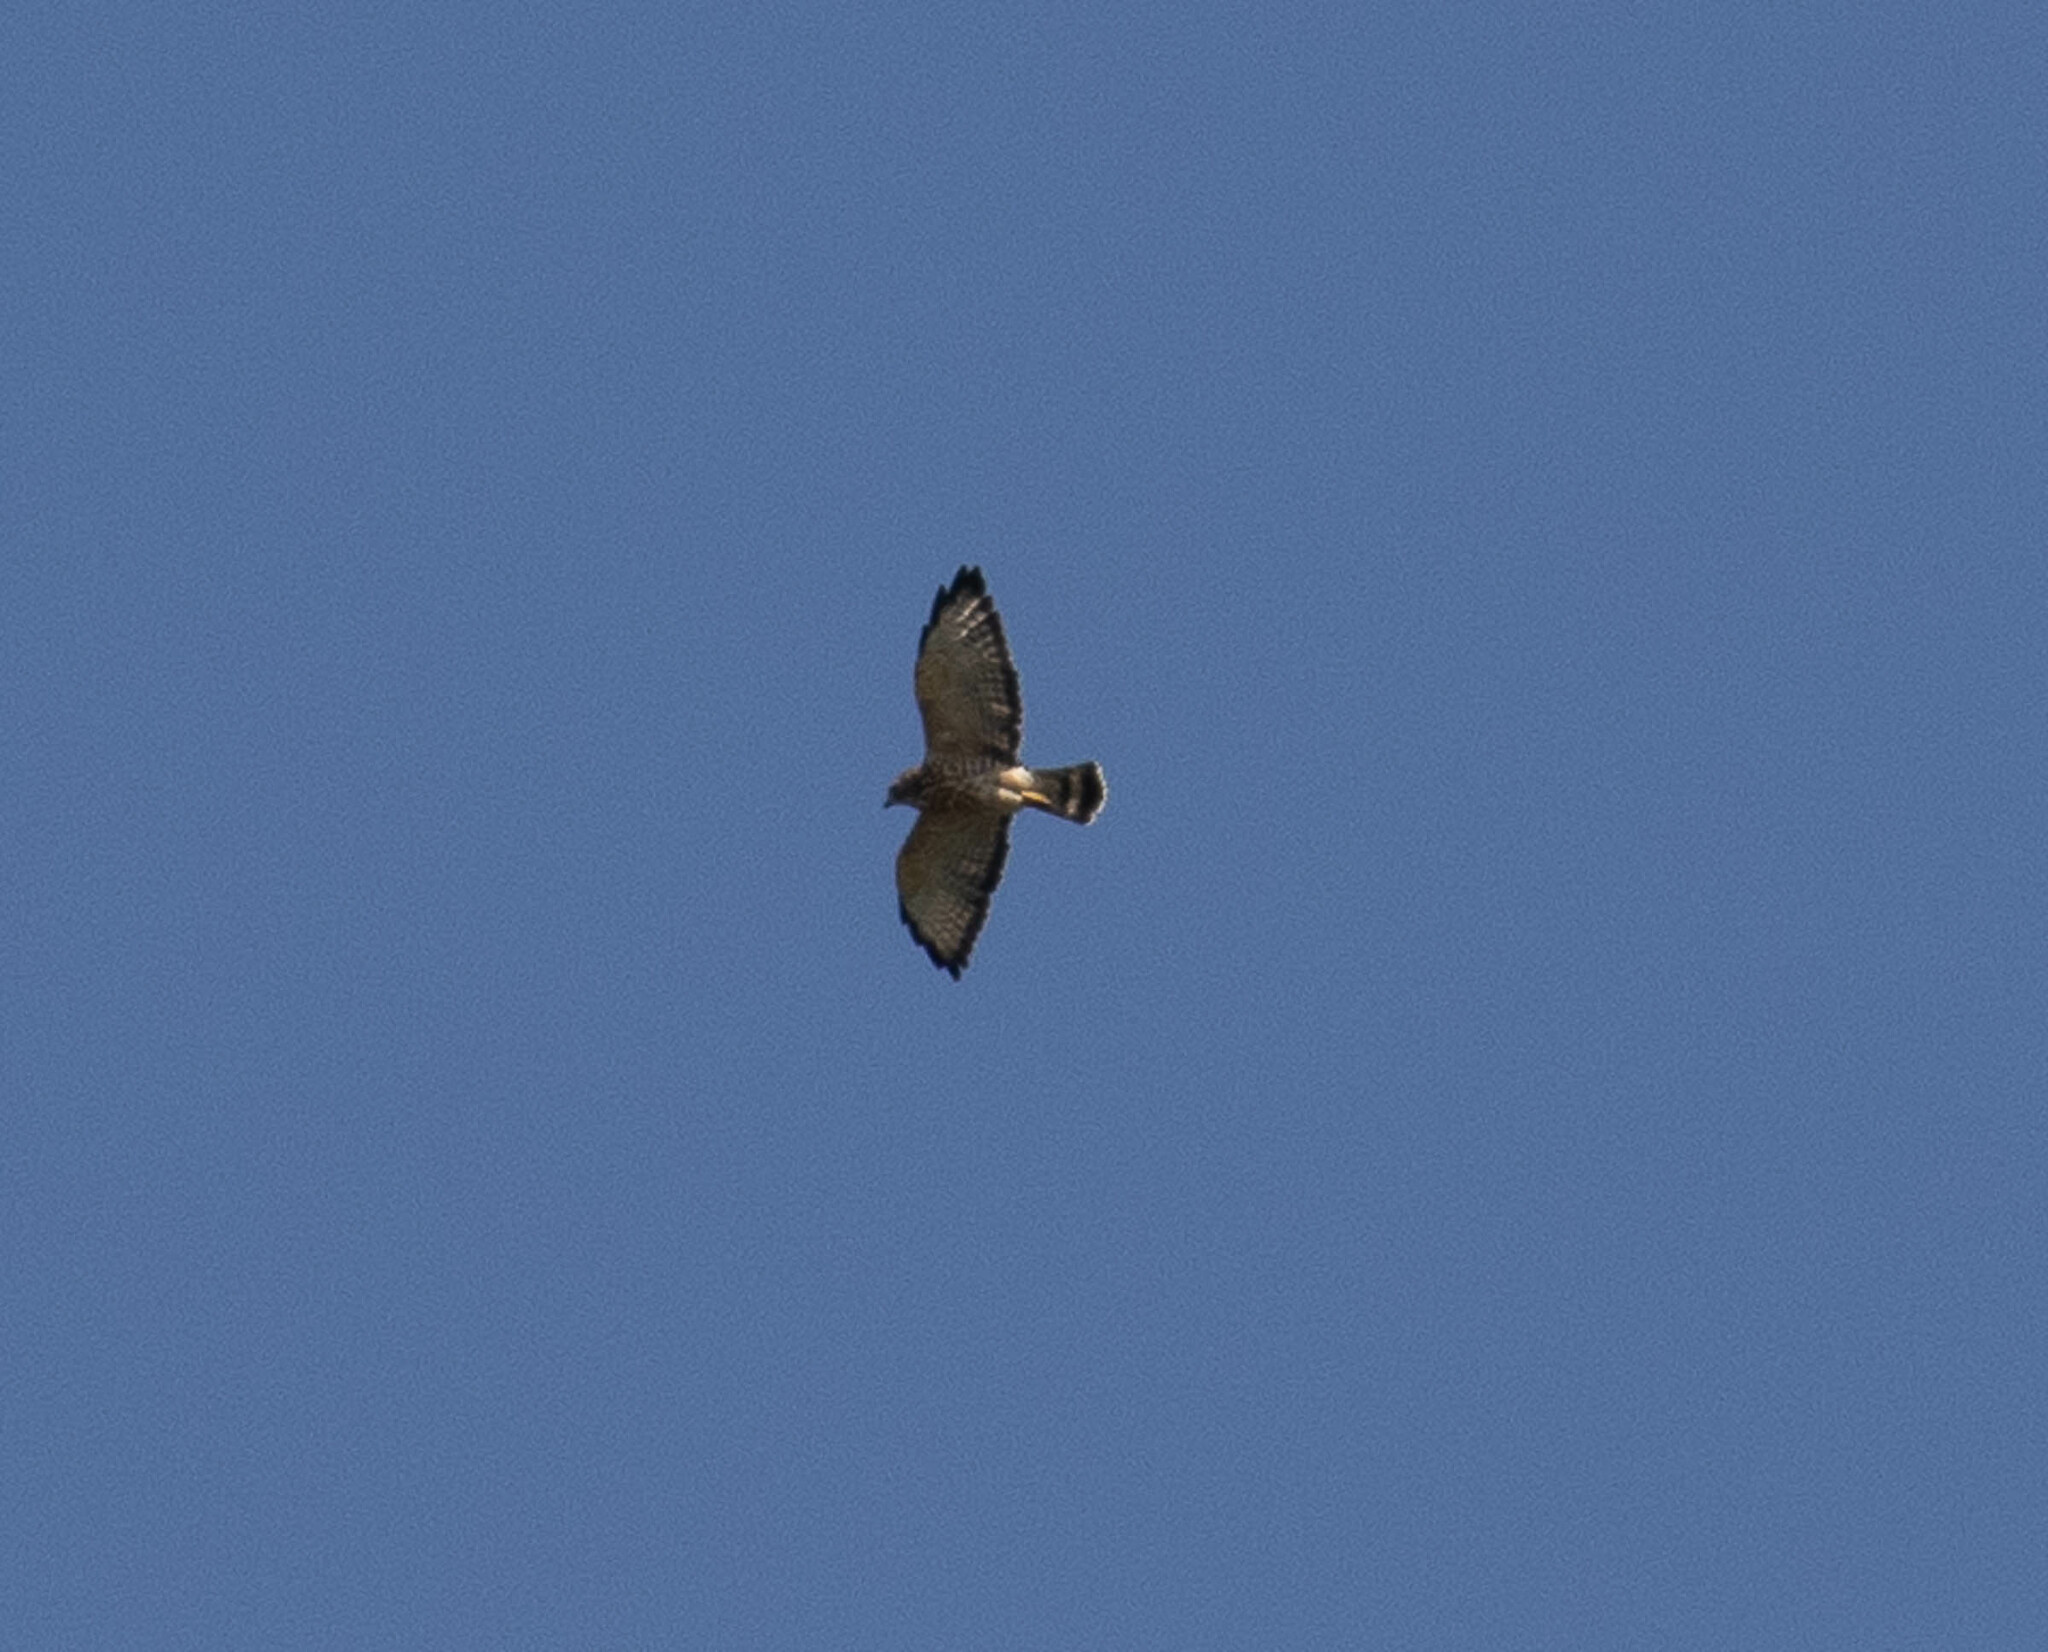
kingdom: Animalia
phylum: Chordata
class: Aves
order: Accipitriformes
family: Accipitridae
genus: Buteo
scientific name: Buteo platypterus
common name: Broad-winged hawk
